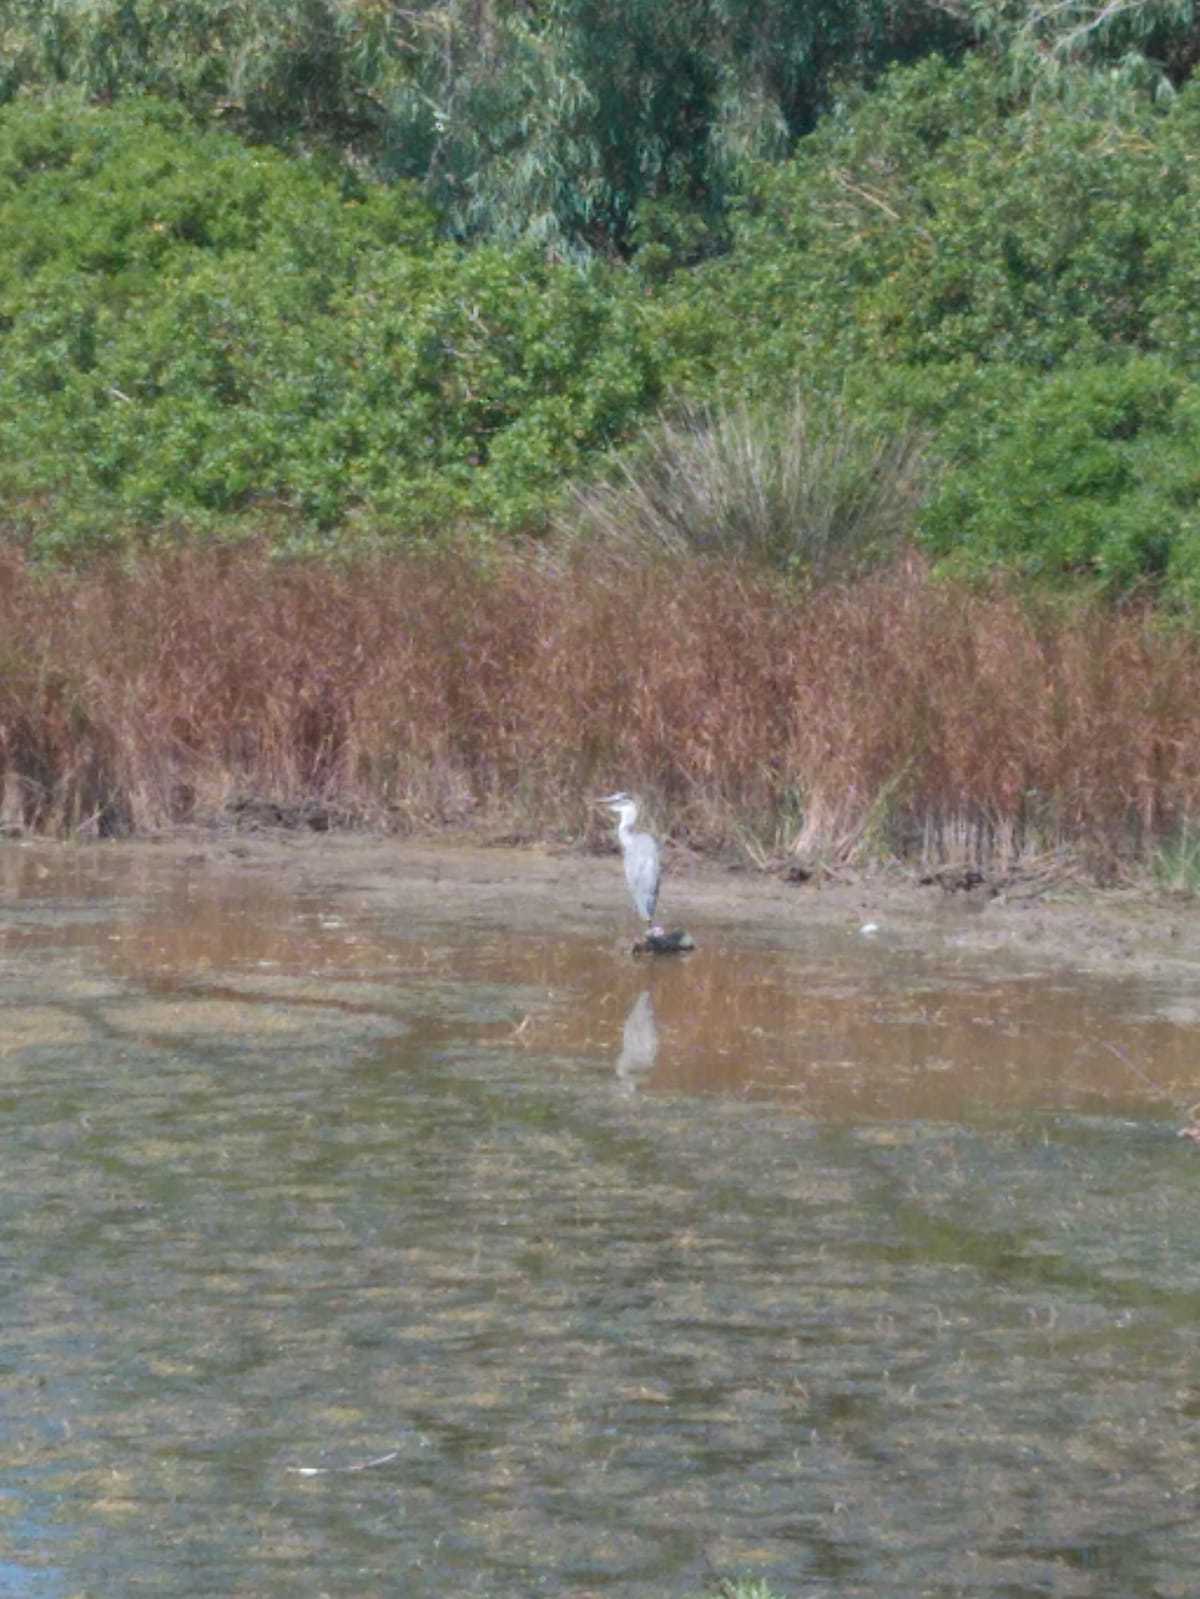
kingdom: Animalia
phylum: Chordata
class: Aves
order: Pelecaniformes
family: Ardeidae
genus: Ardea
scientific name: Ardea cinerea
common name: Grey heron
